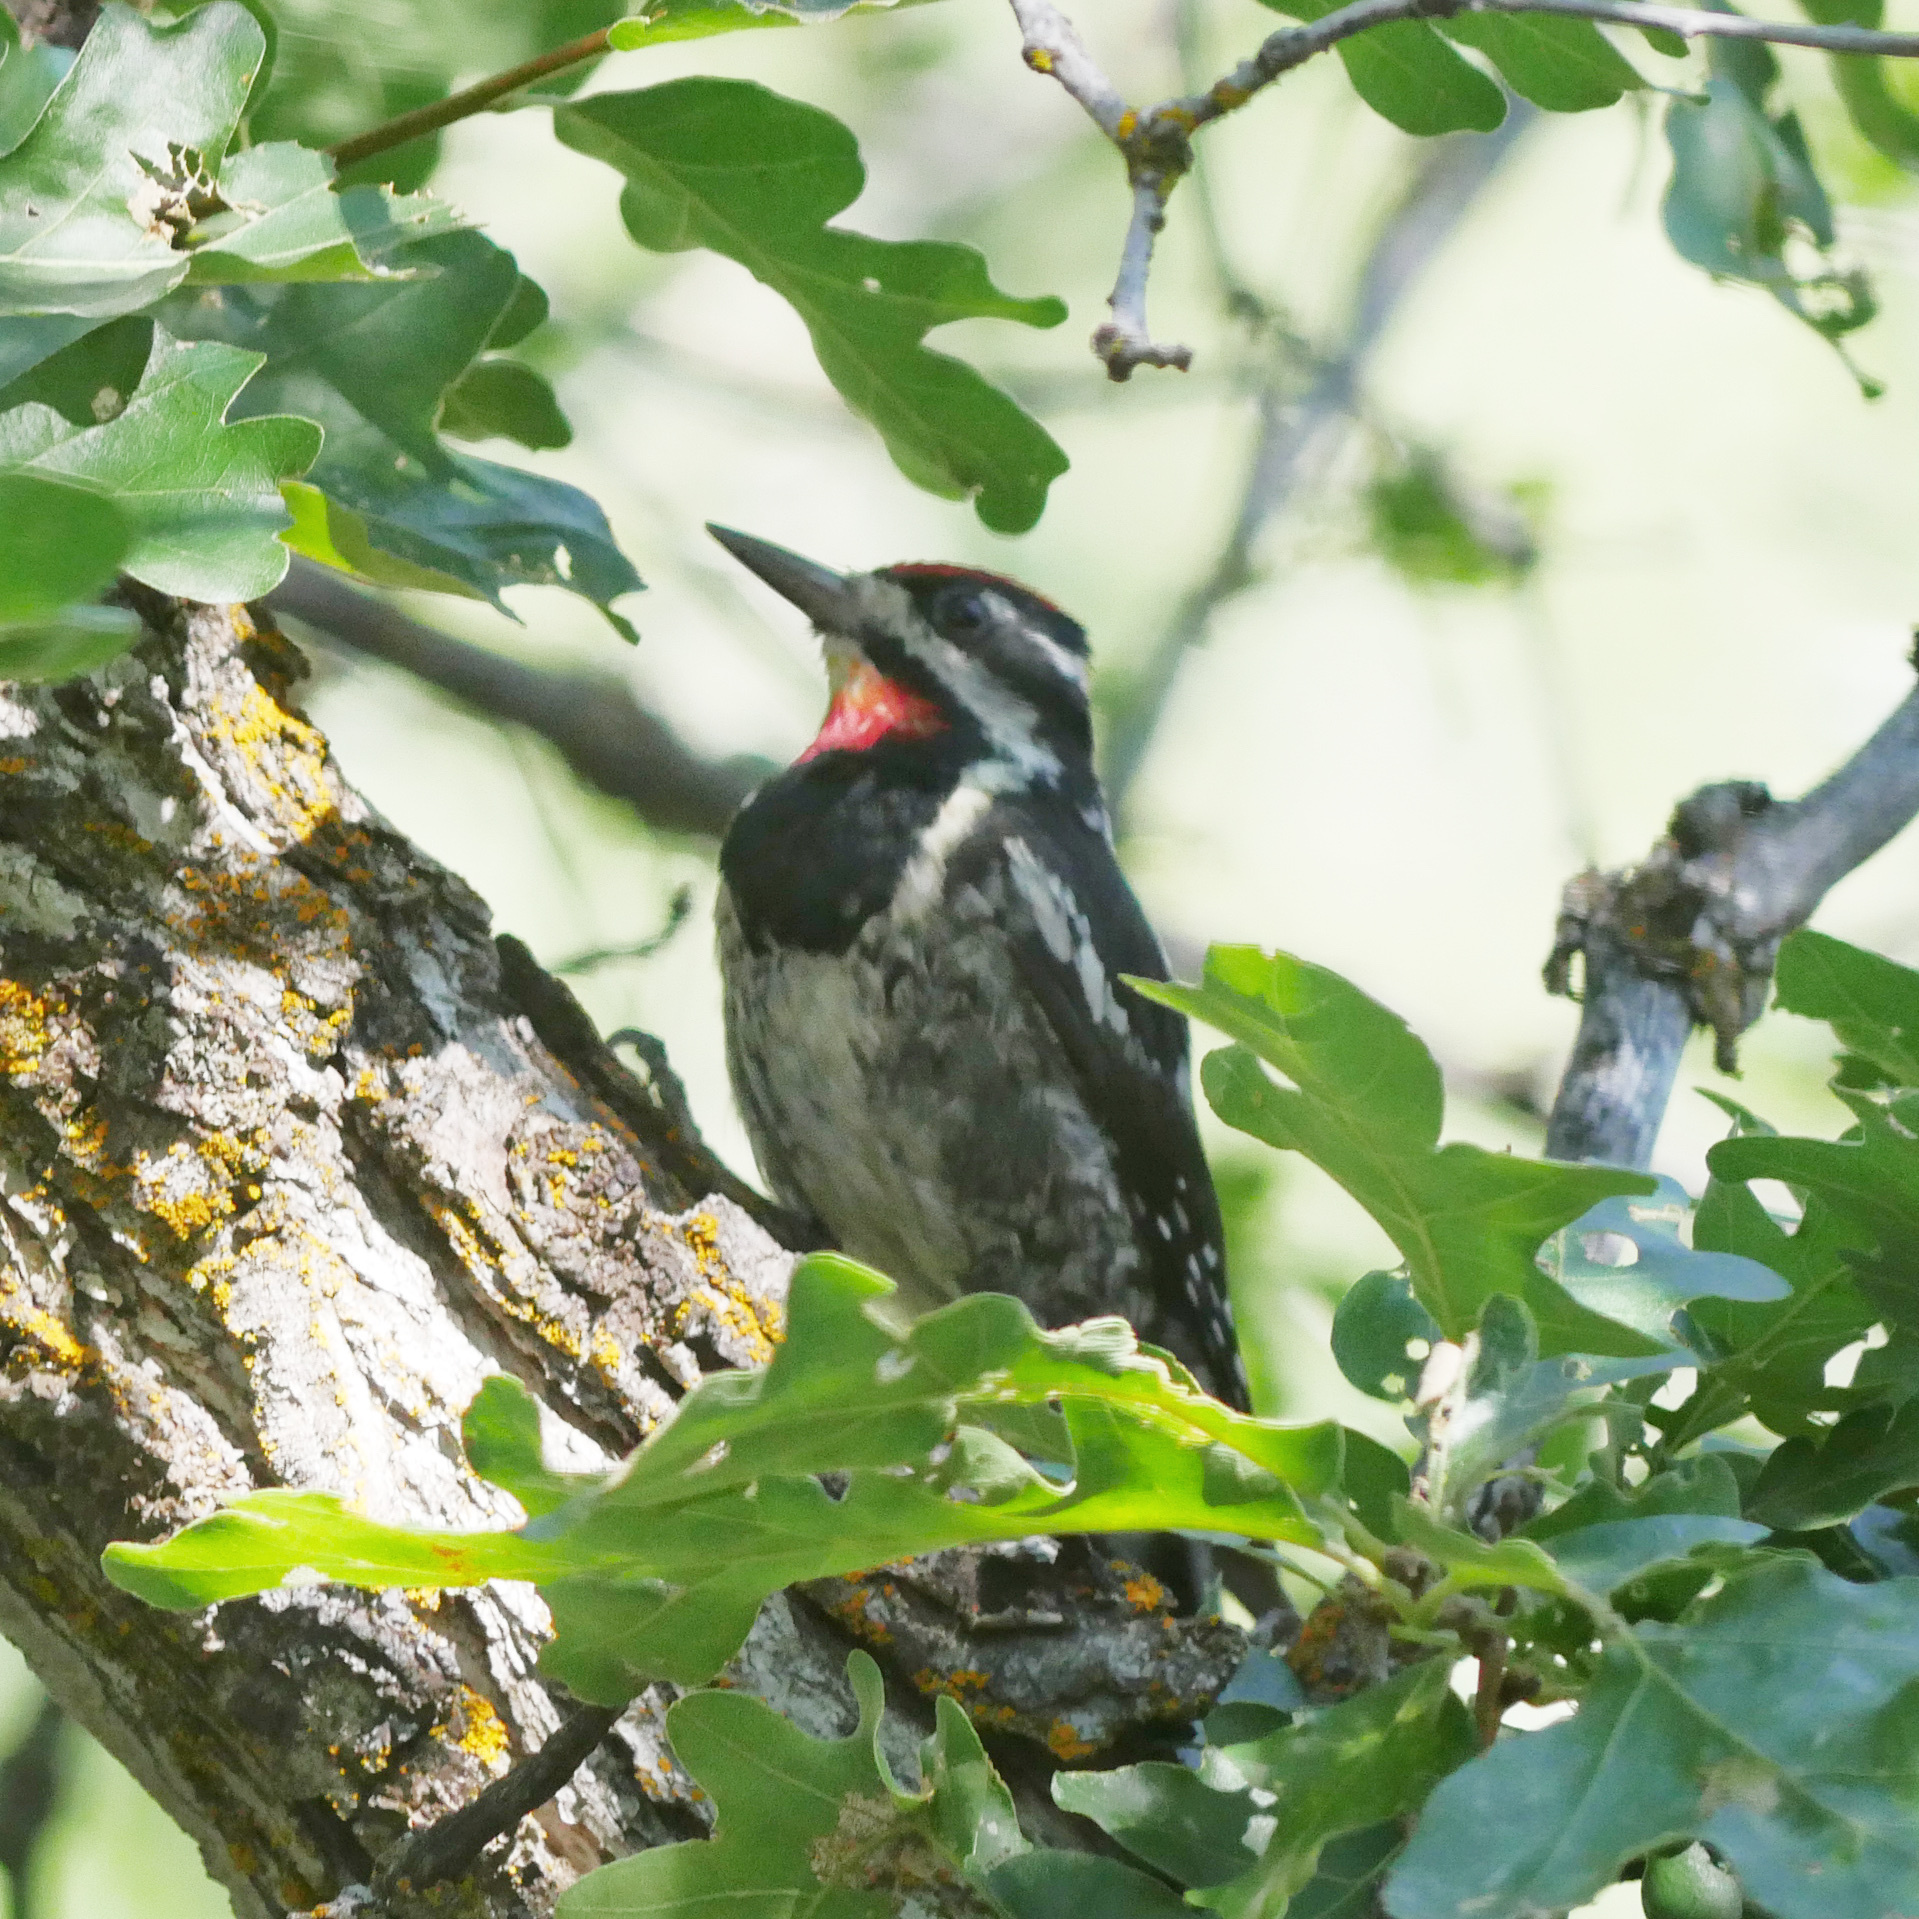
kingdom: Animalia
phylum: Chordata
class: Aves
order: Piciformes
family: Picidae
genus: Sphyrapicus
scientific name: Sphyrapicus nuchalis
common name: Red-naped sapsucker
